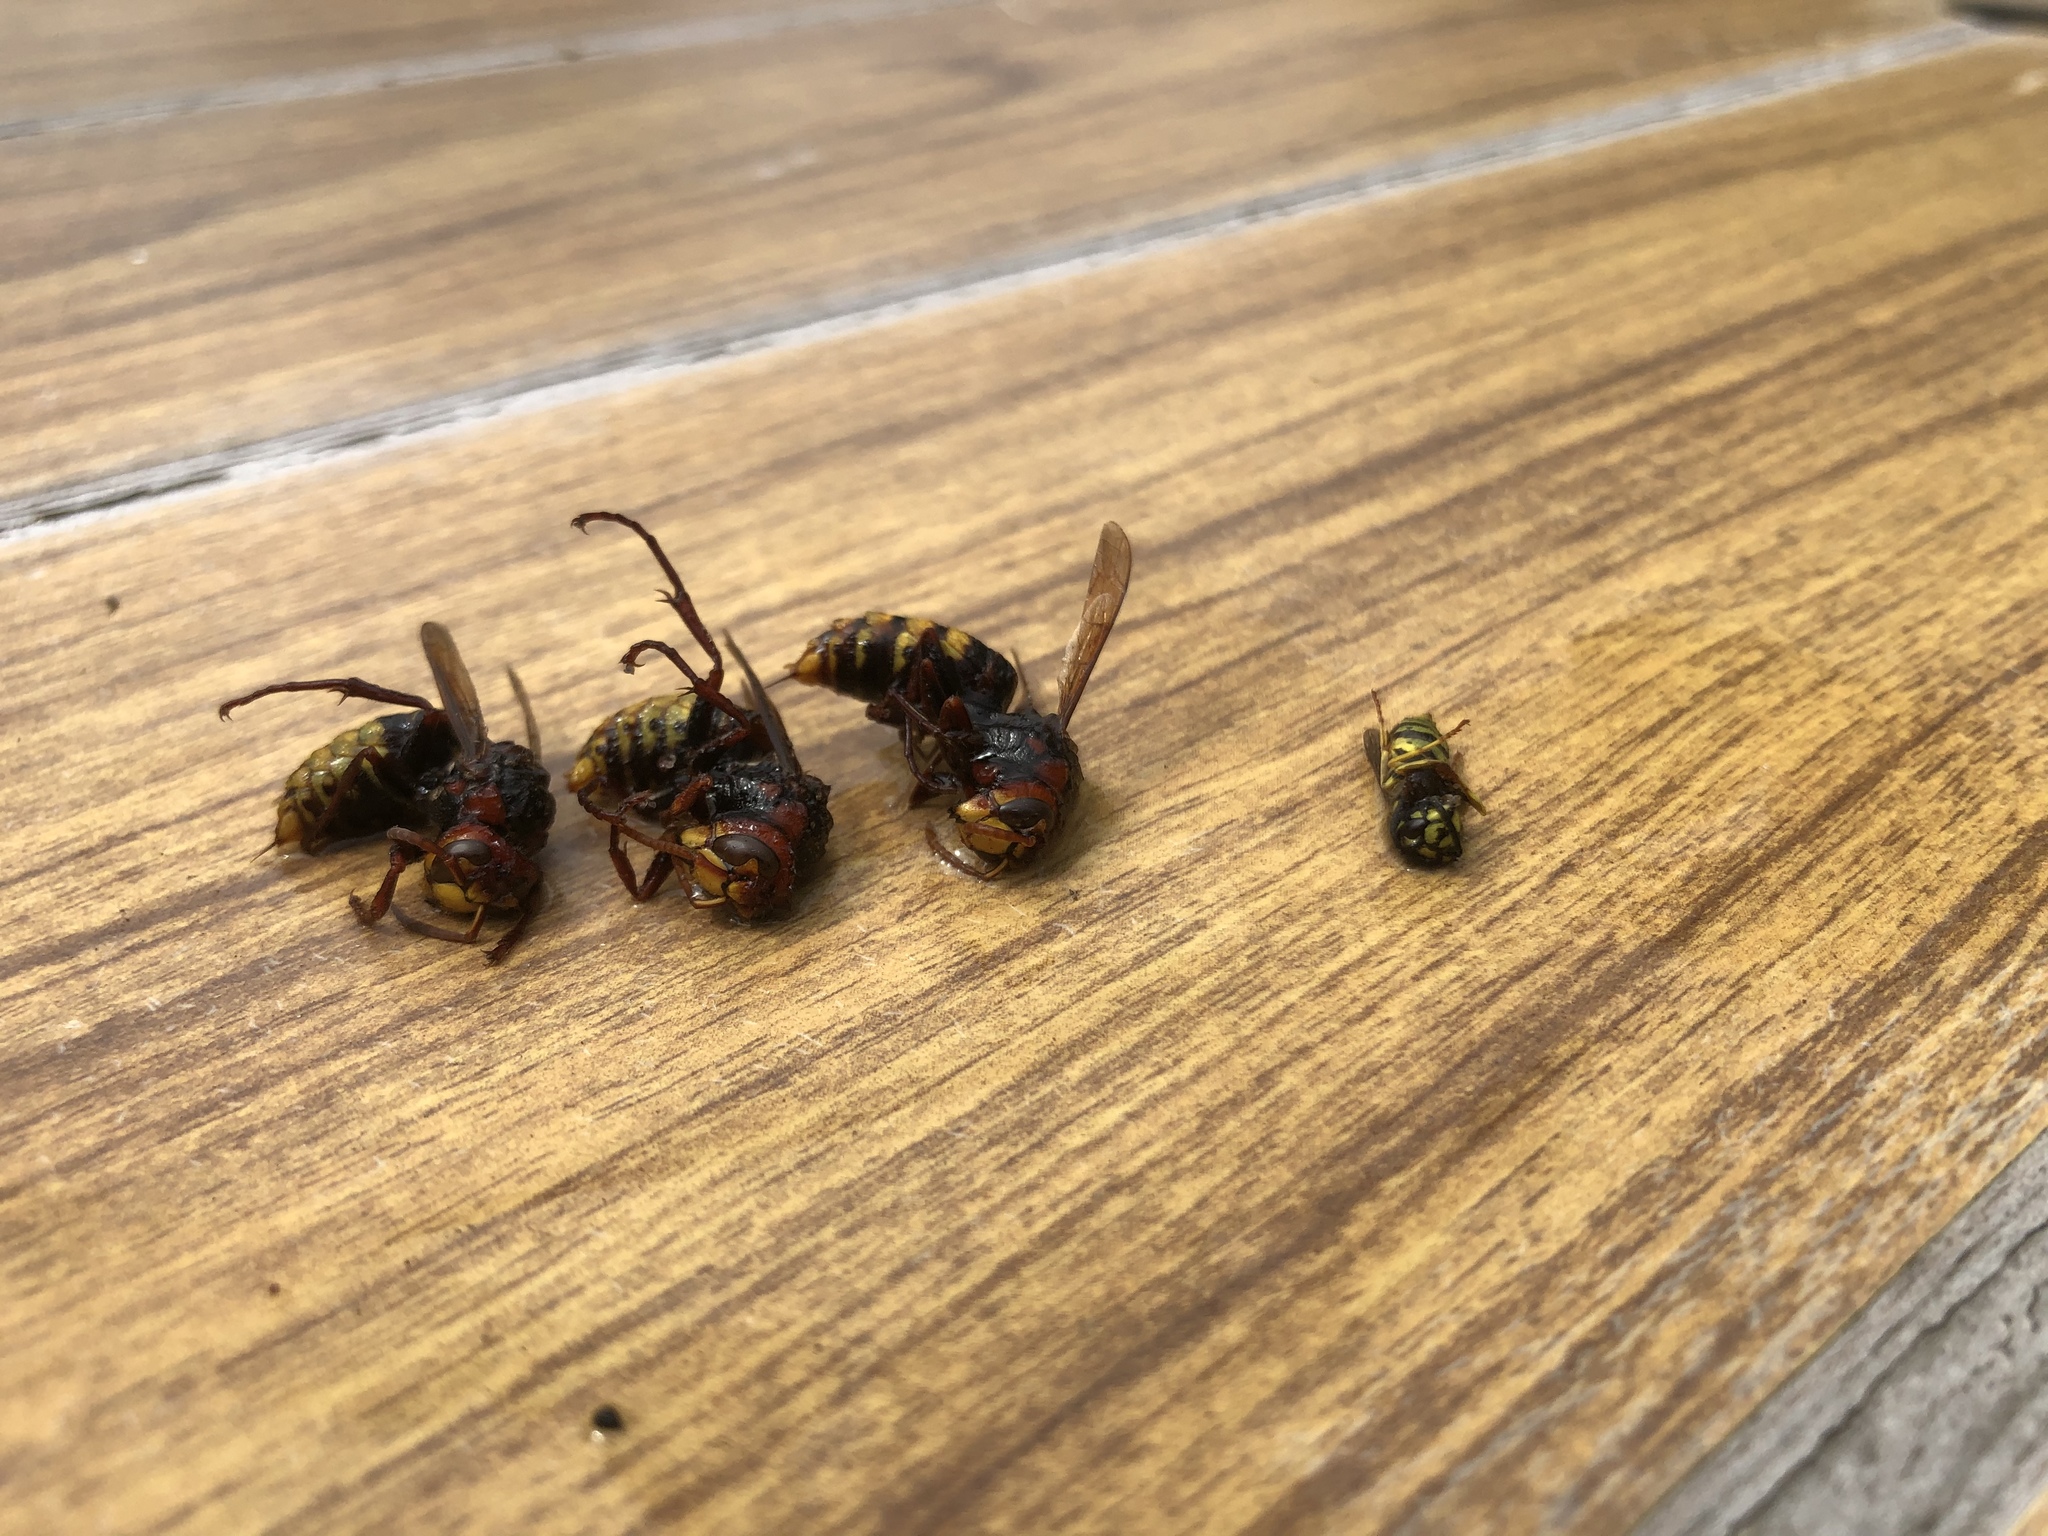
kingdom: Animalia
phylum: Arthropoda
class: Insecta
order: Hymenoptera
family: Vespidae
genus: Vespa
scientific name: Vespa crabro
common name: Hornet
